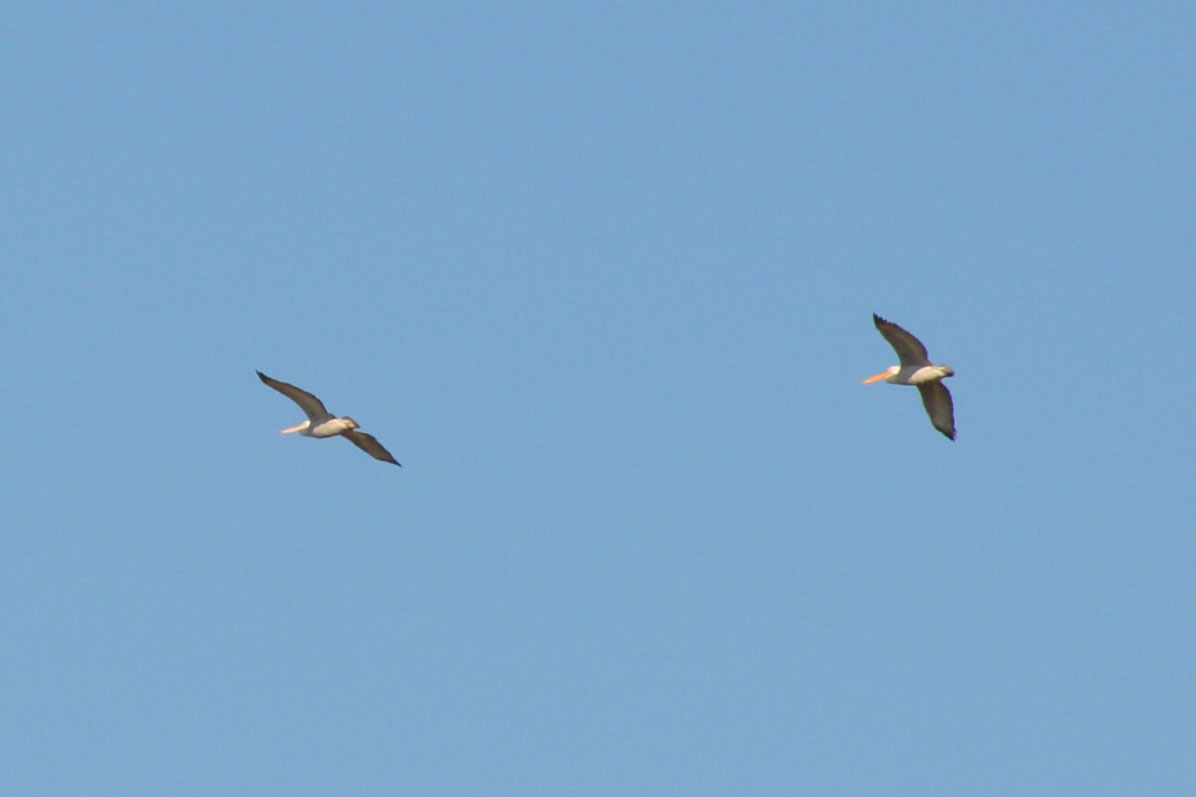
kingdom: Animalia
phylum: Chordata
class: Aves
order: Pelecaniformes
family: Pelecanidae
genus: Pelecanus
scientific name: Pelecanus crispus
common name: Dalmatian pelican
